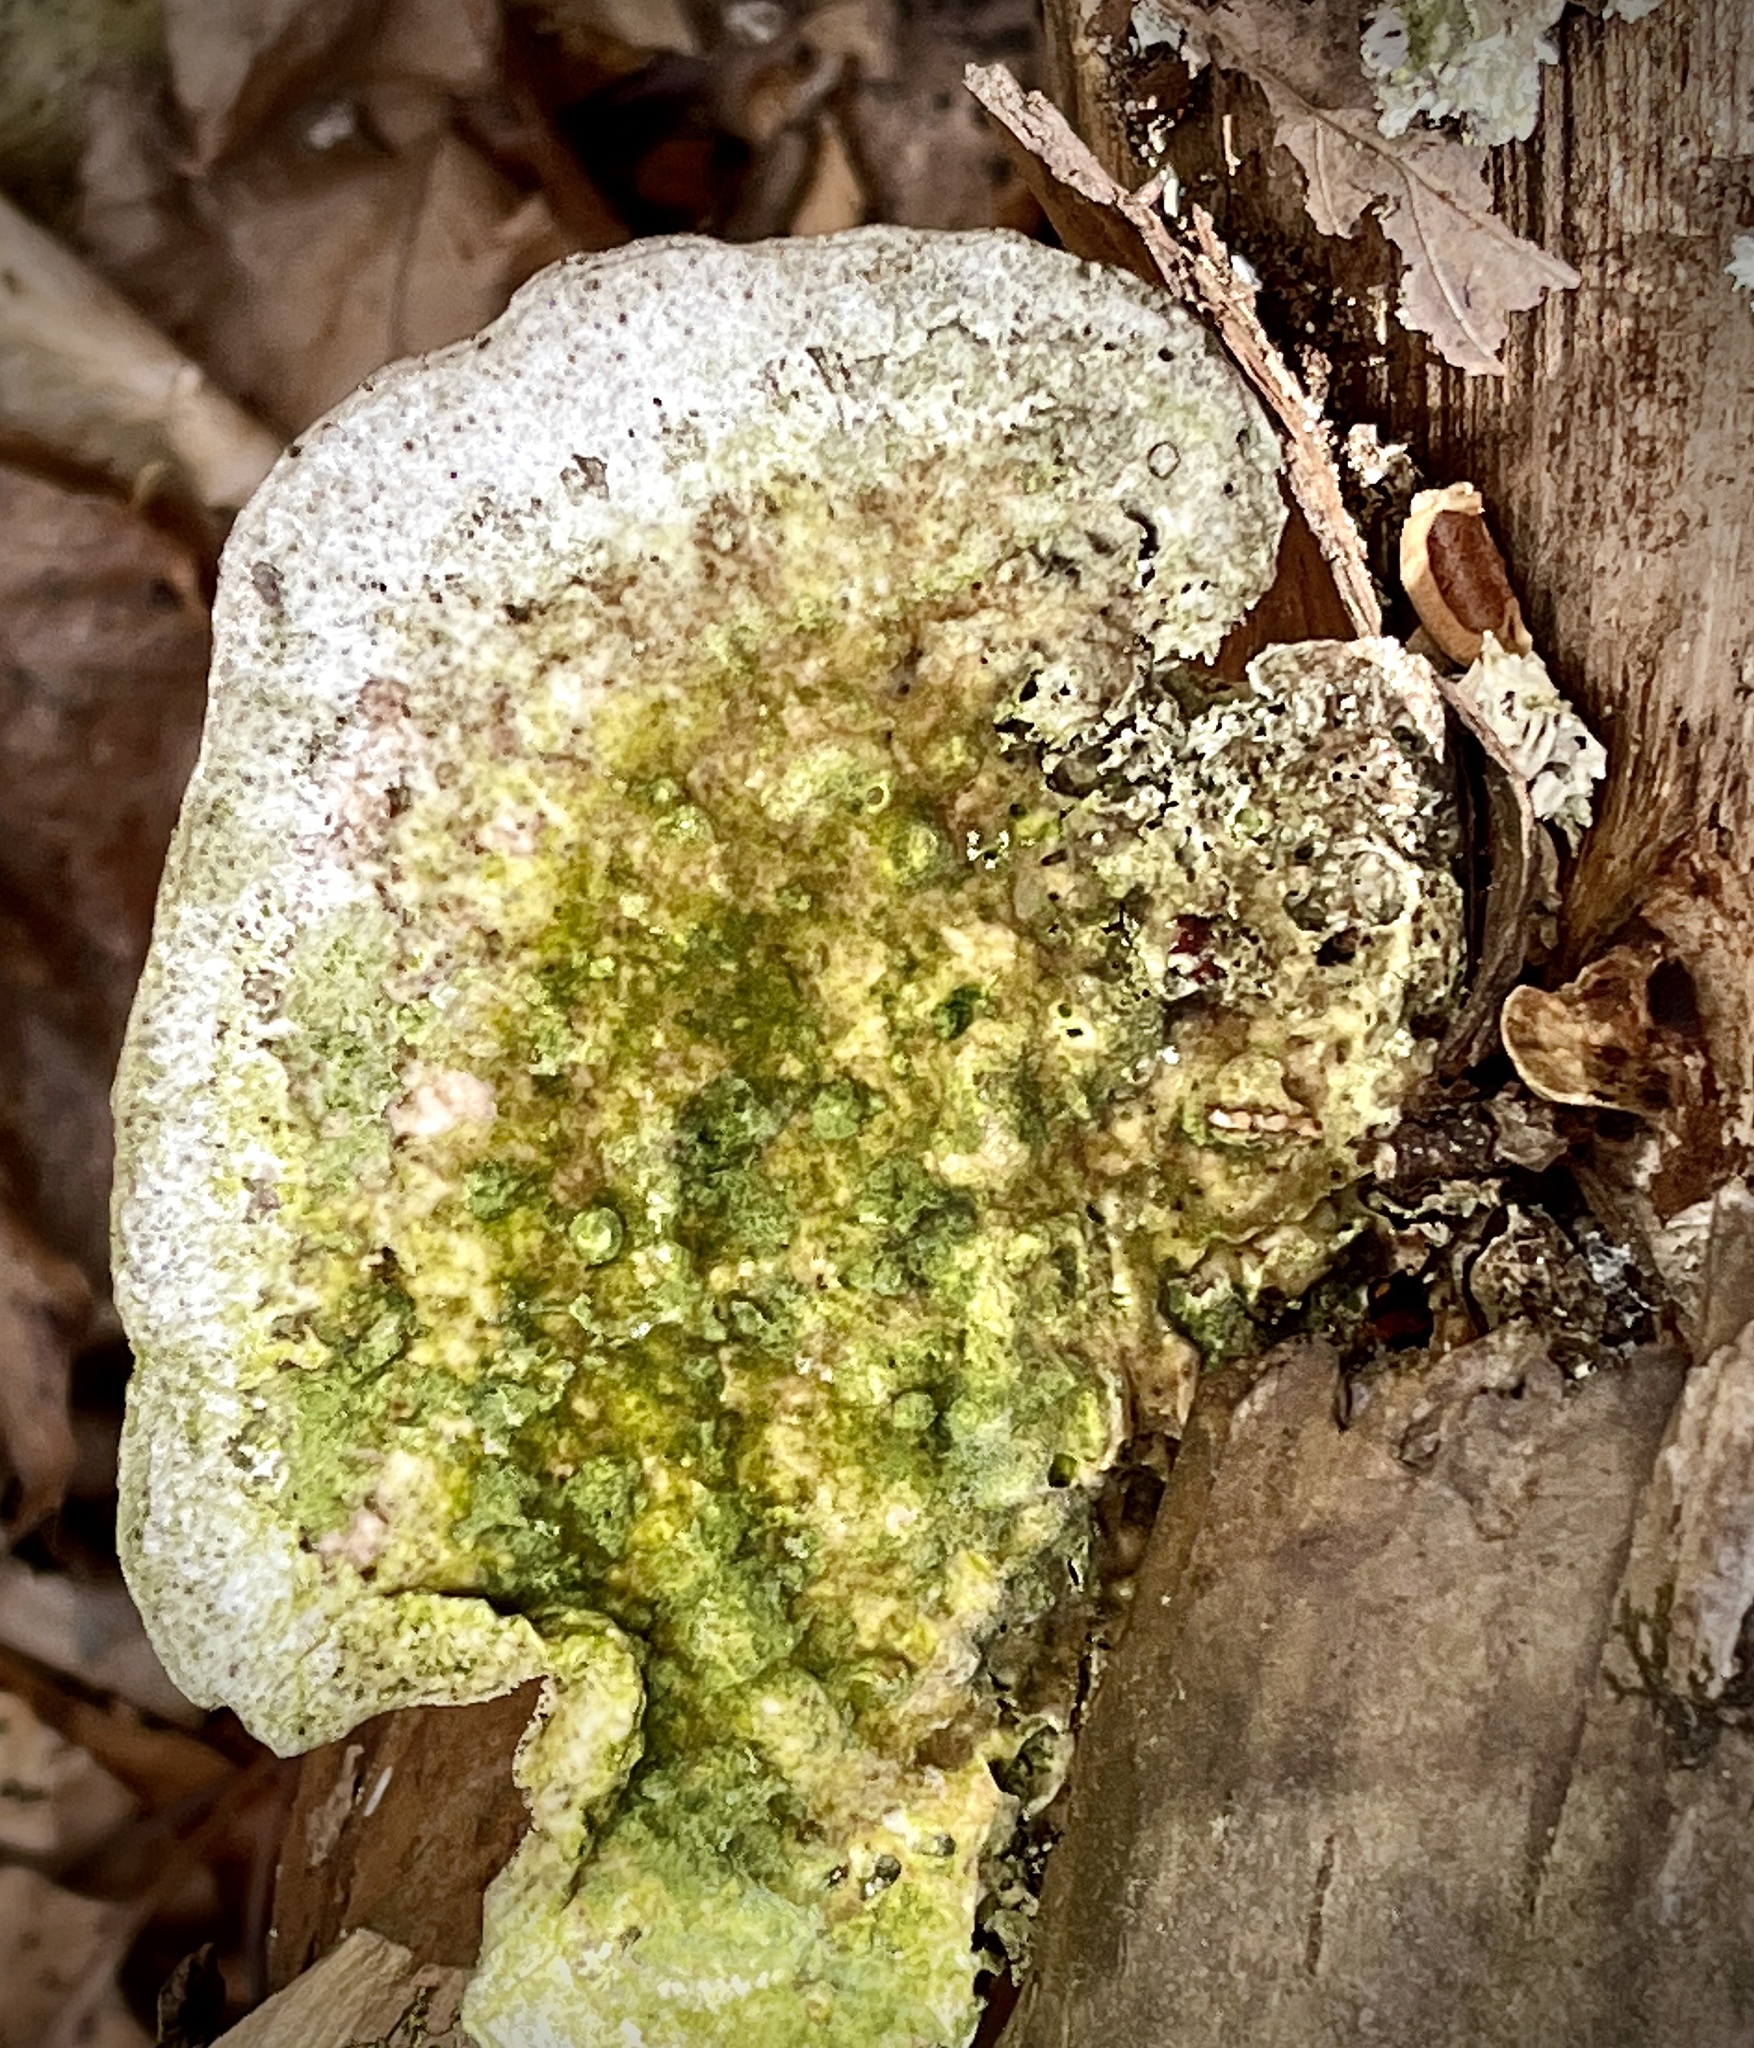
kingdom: Fungi
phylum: Basidiomycota
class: Agaricomycetes
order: Polyporales
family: Polyporaceae
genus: Trametes
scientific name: Trametes gibbosa
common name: Lumpy bracket
